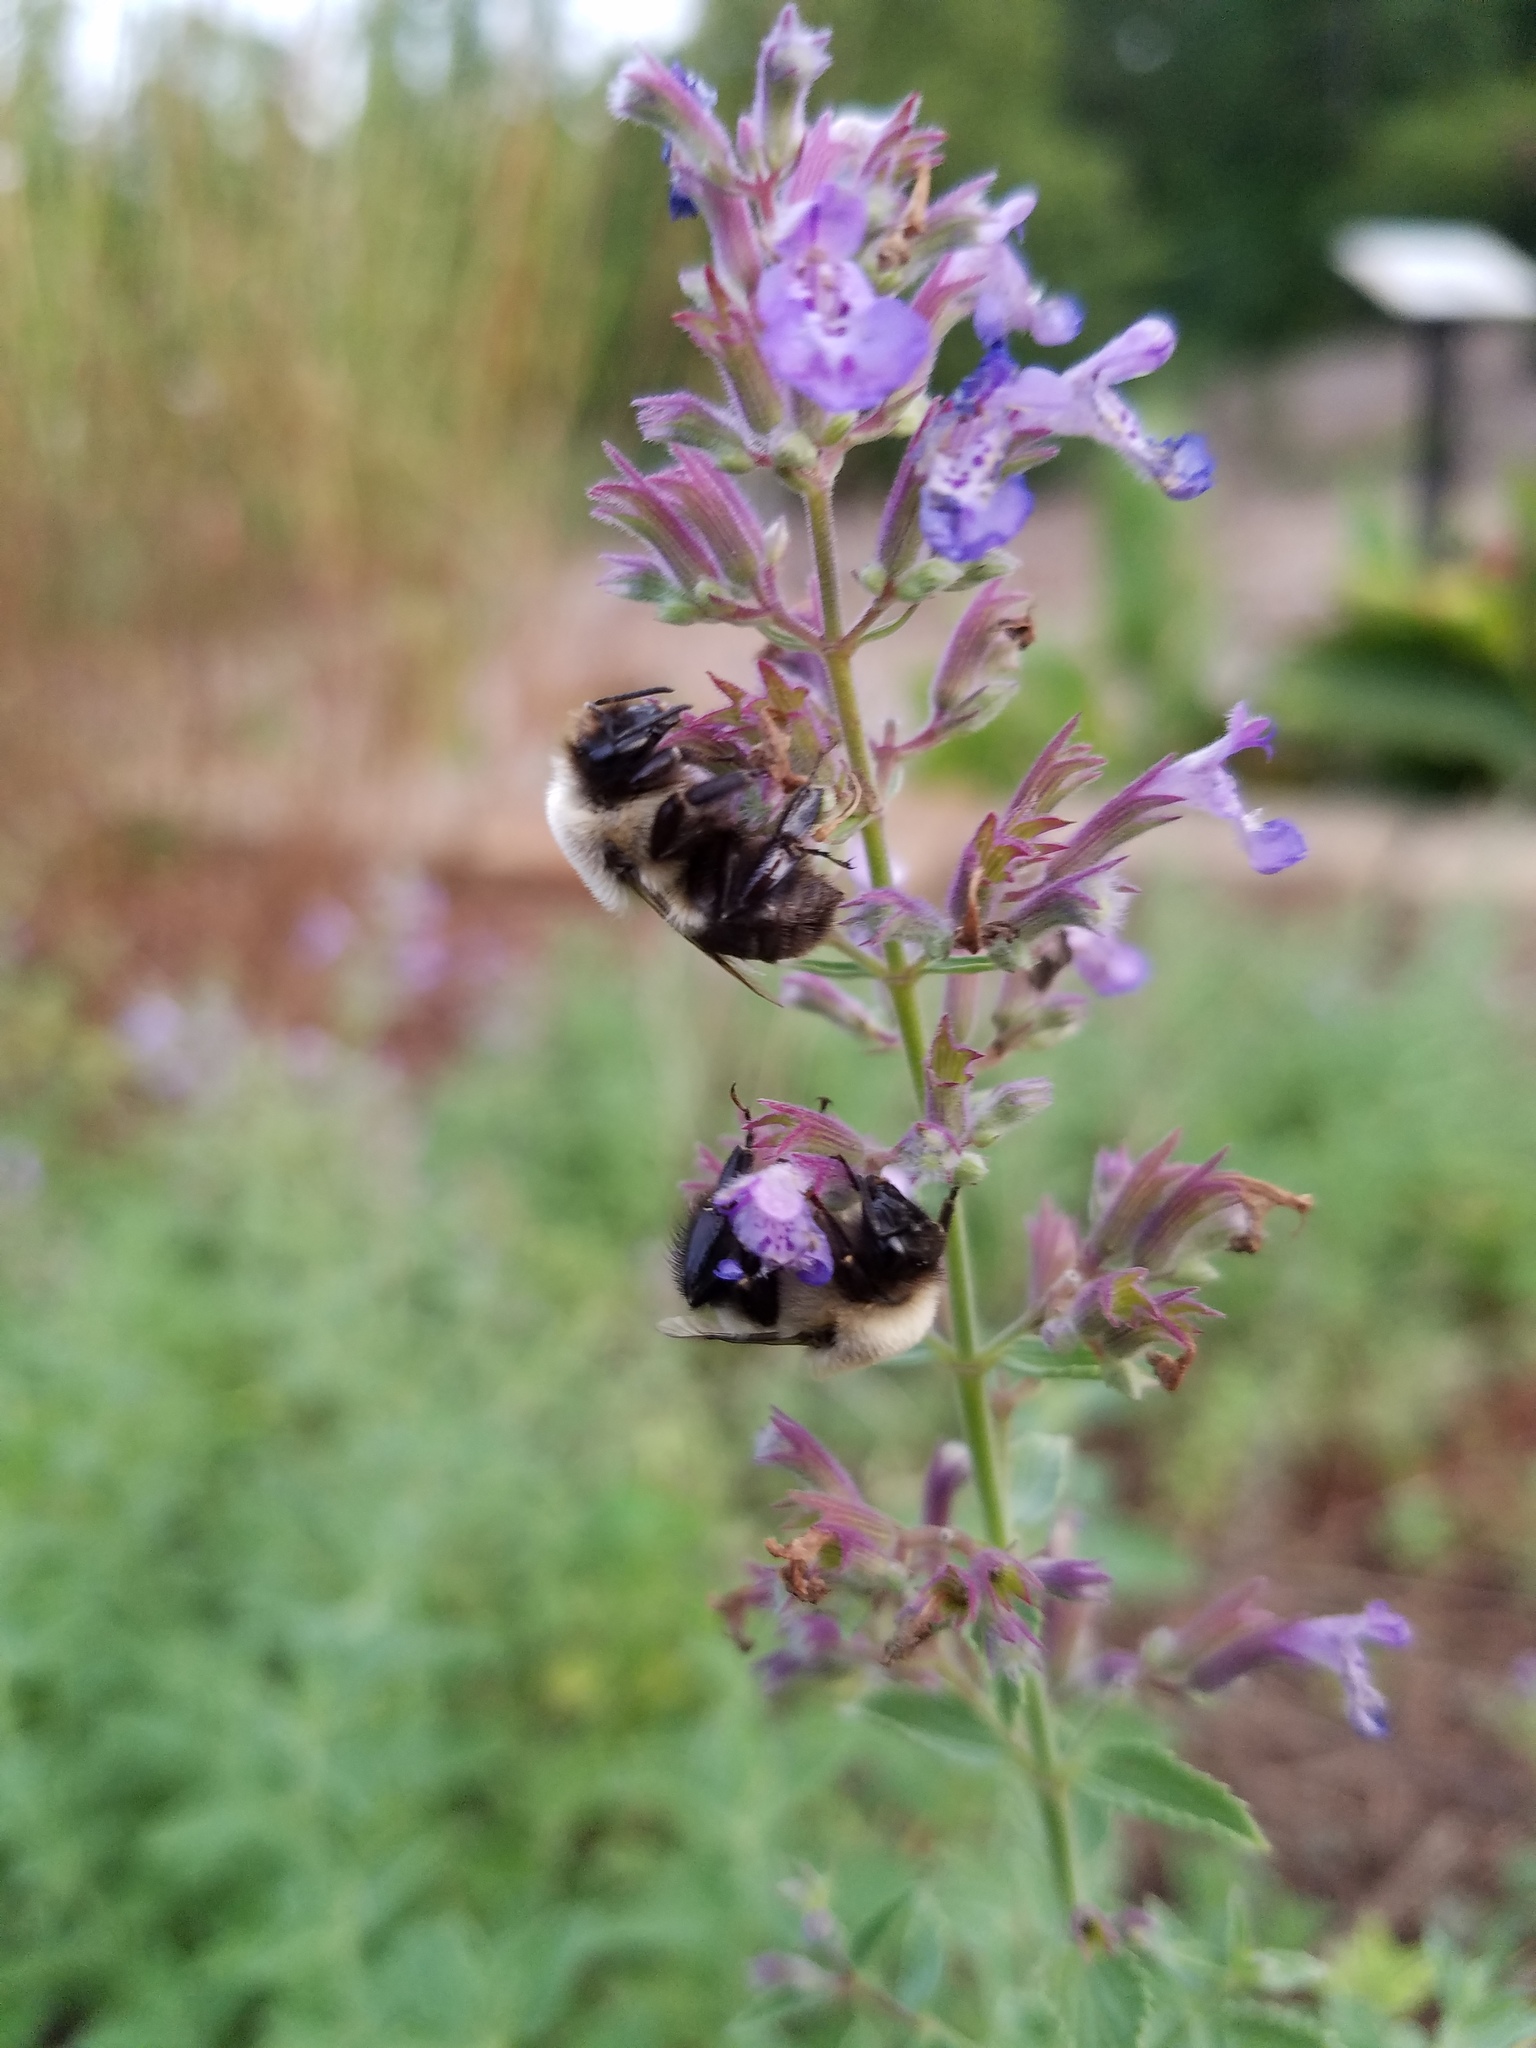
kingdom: Animalia
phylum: Arthropoda
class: Insecta
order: Hymenoptera
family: Apidae
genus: Bombus
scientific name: Bombus impatiens
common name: Common eastern bumble bee
